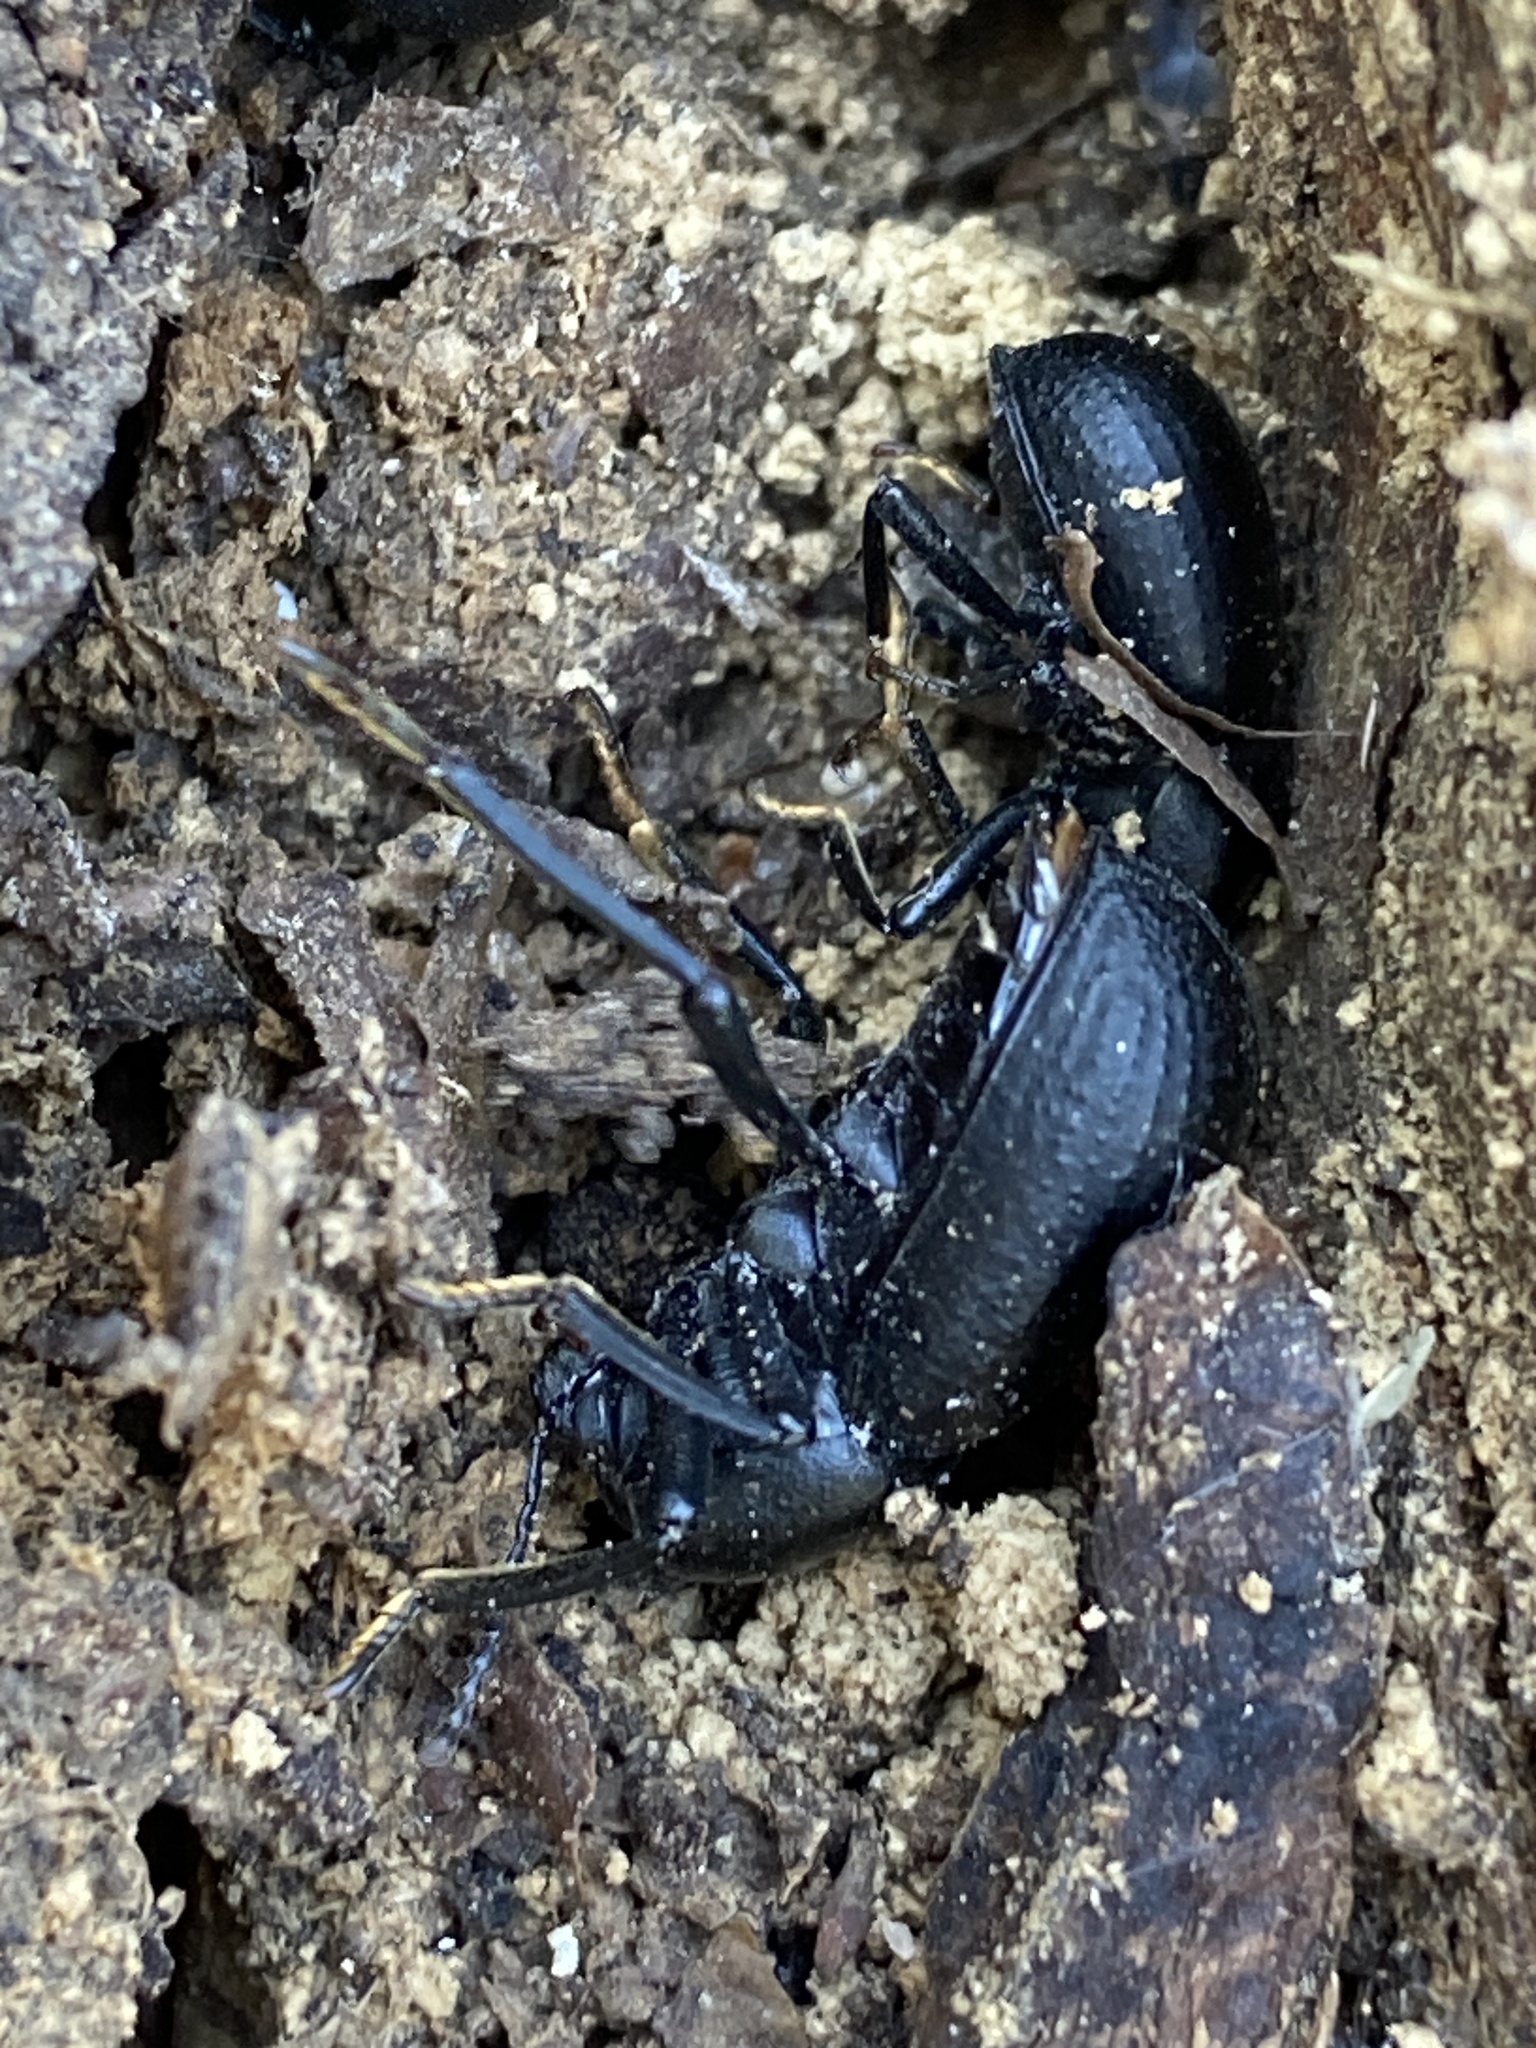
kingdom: Animalia
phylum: Arthropoda
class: Insecta
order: Coleoptera
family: Tenebrionidae
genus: Misolampus
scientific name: Misolampus goudoti
